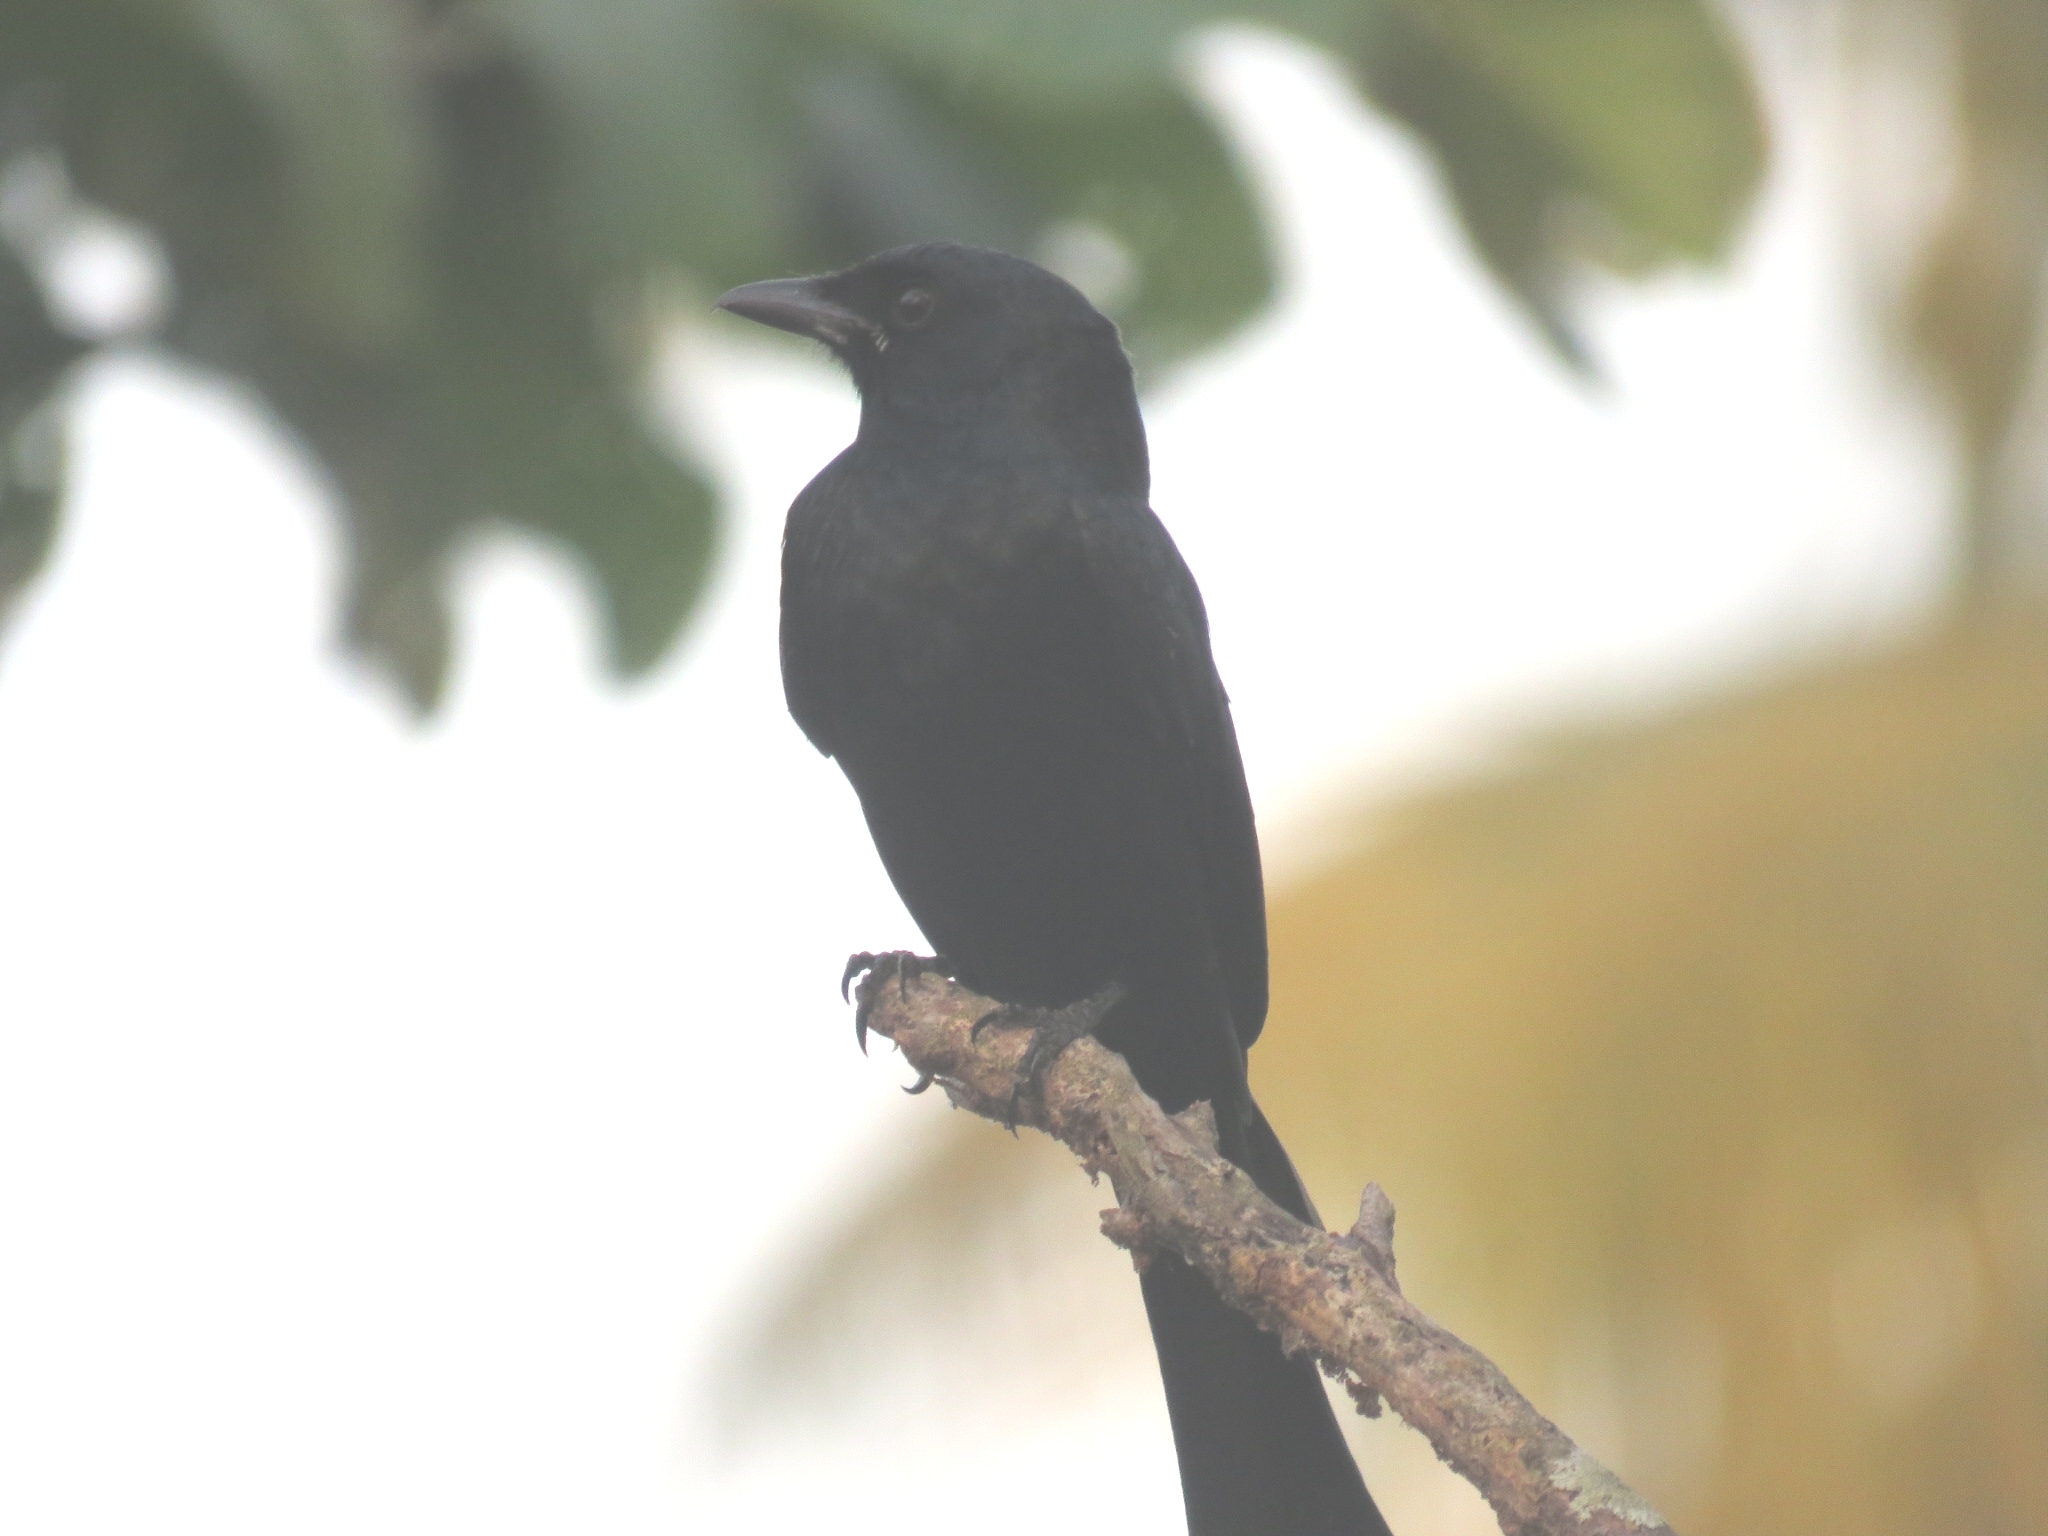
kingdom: Animalia
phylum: Chordata
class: Aves
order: Passeriformes
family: Dicruridae
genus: Dicrurus
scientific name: Dicrurus macrocercus
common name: Black drongo
